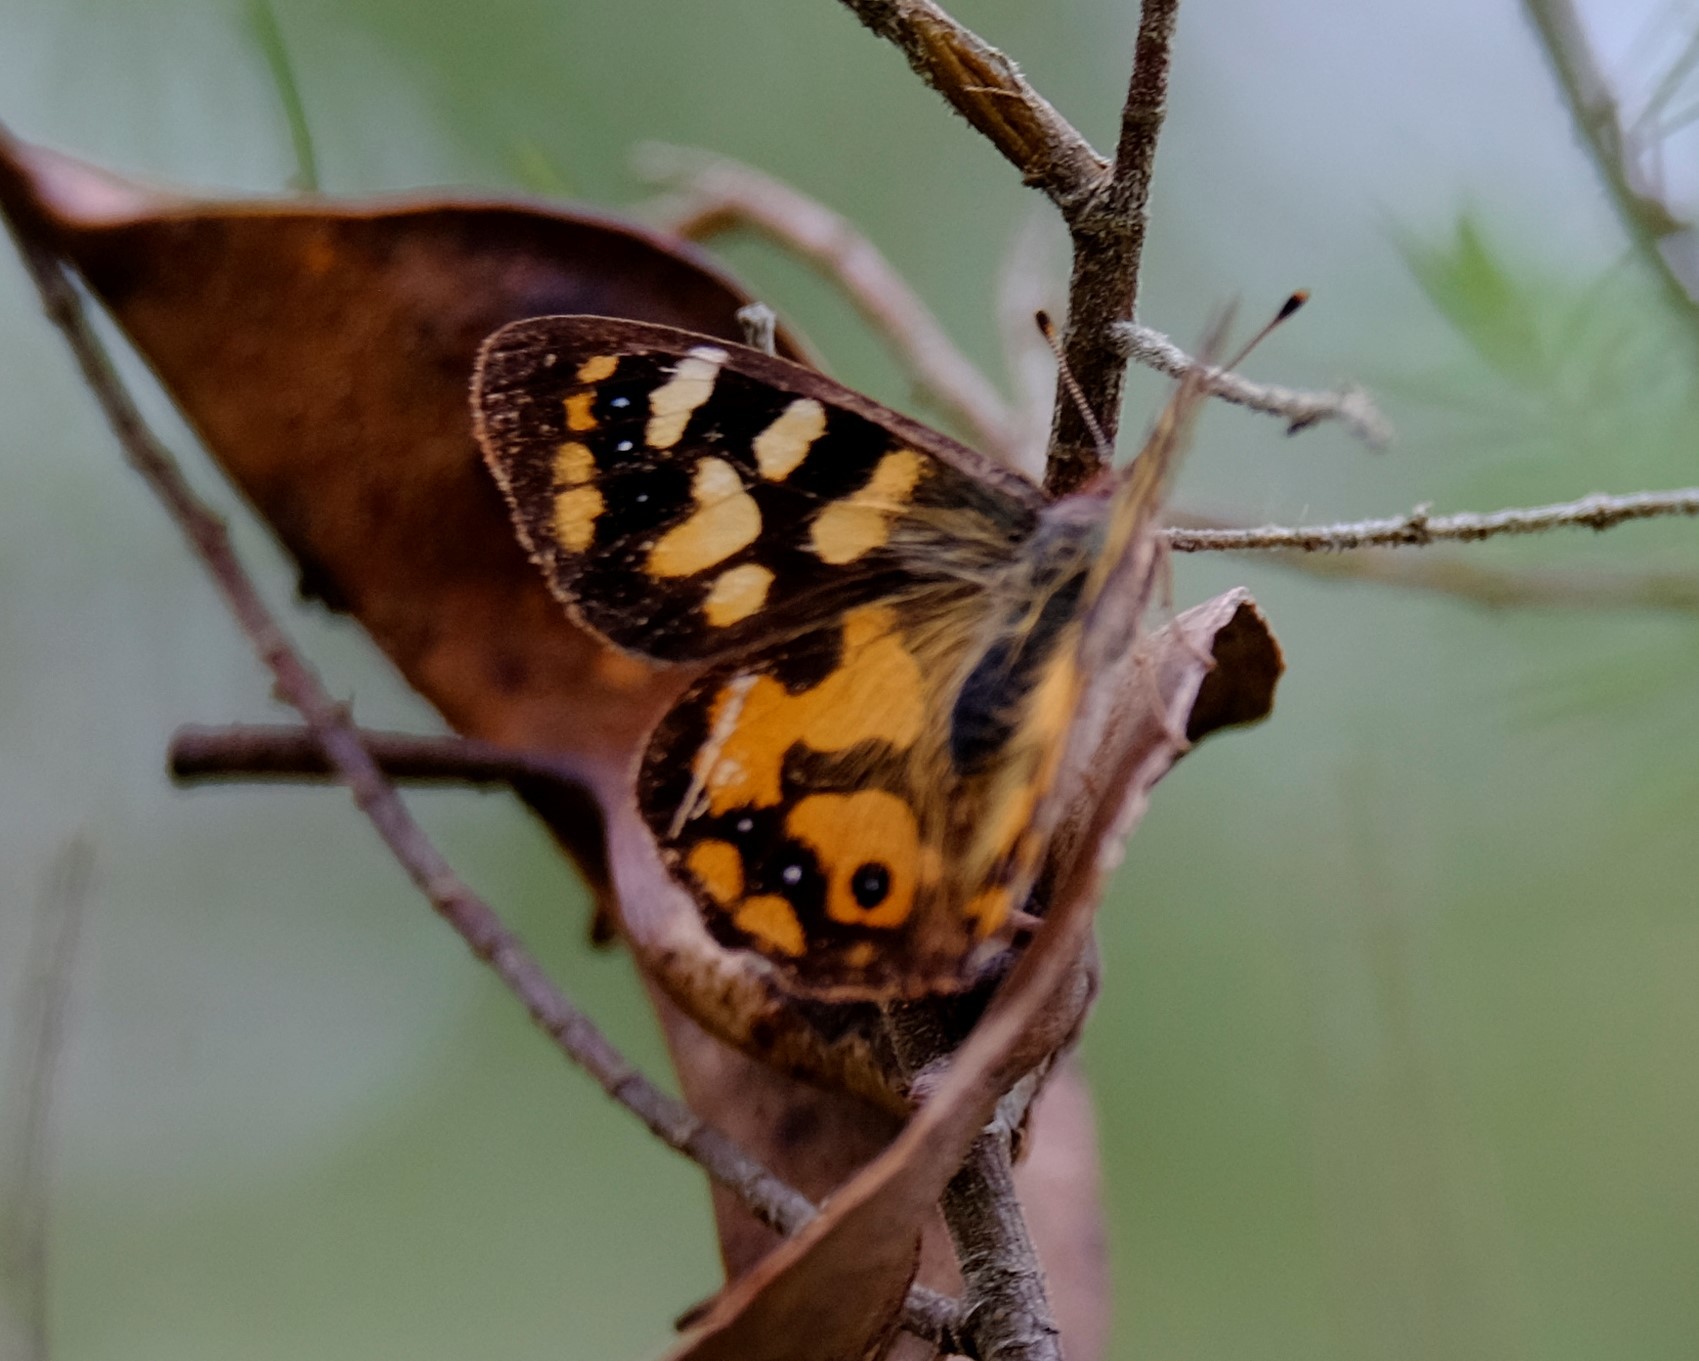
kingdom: Animalia
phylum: Arthropoda
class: Insecta
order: Lepidoptera
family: Nymphalidae
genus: Argynnina
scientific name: Argynnina cyrila
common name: Cyril's brown
